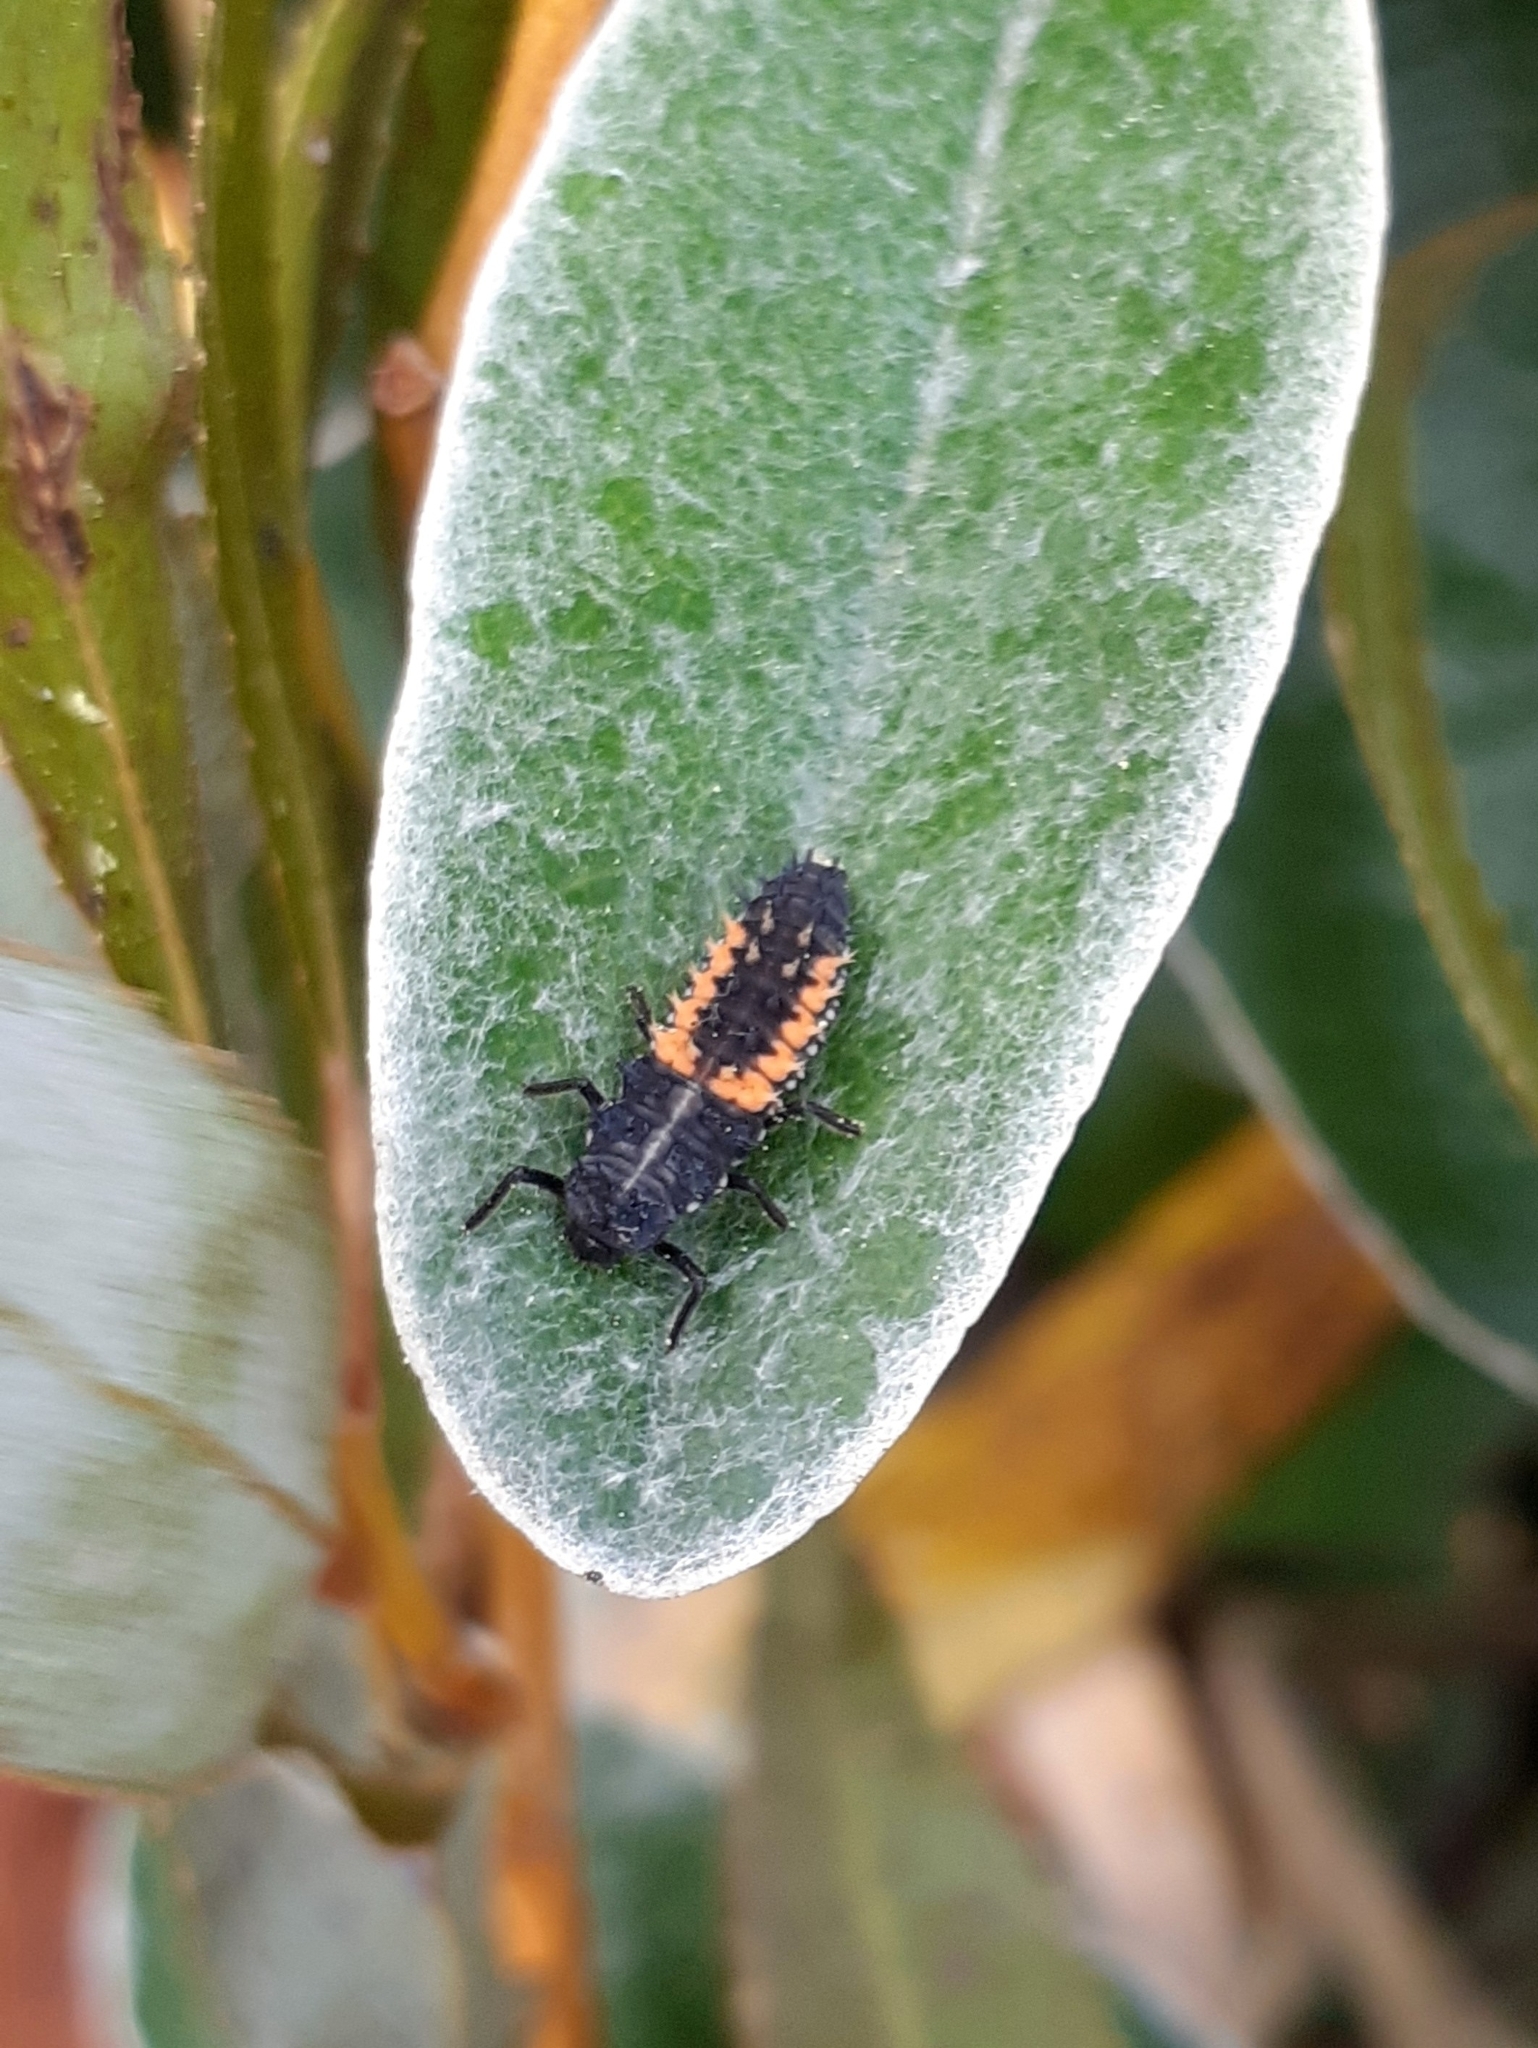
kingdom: Animalia
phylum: Arthropoda
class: Insecta
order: Coleoptera
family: Coccinellidae
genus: Harmonia
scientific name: Harmonia axyridis
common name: Harlequin ladybird
